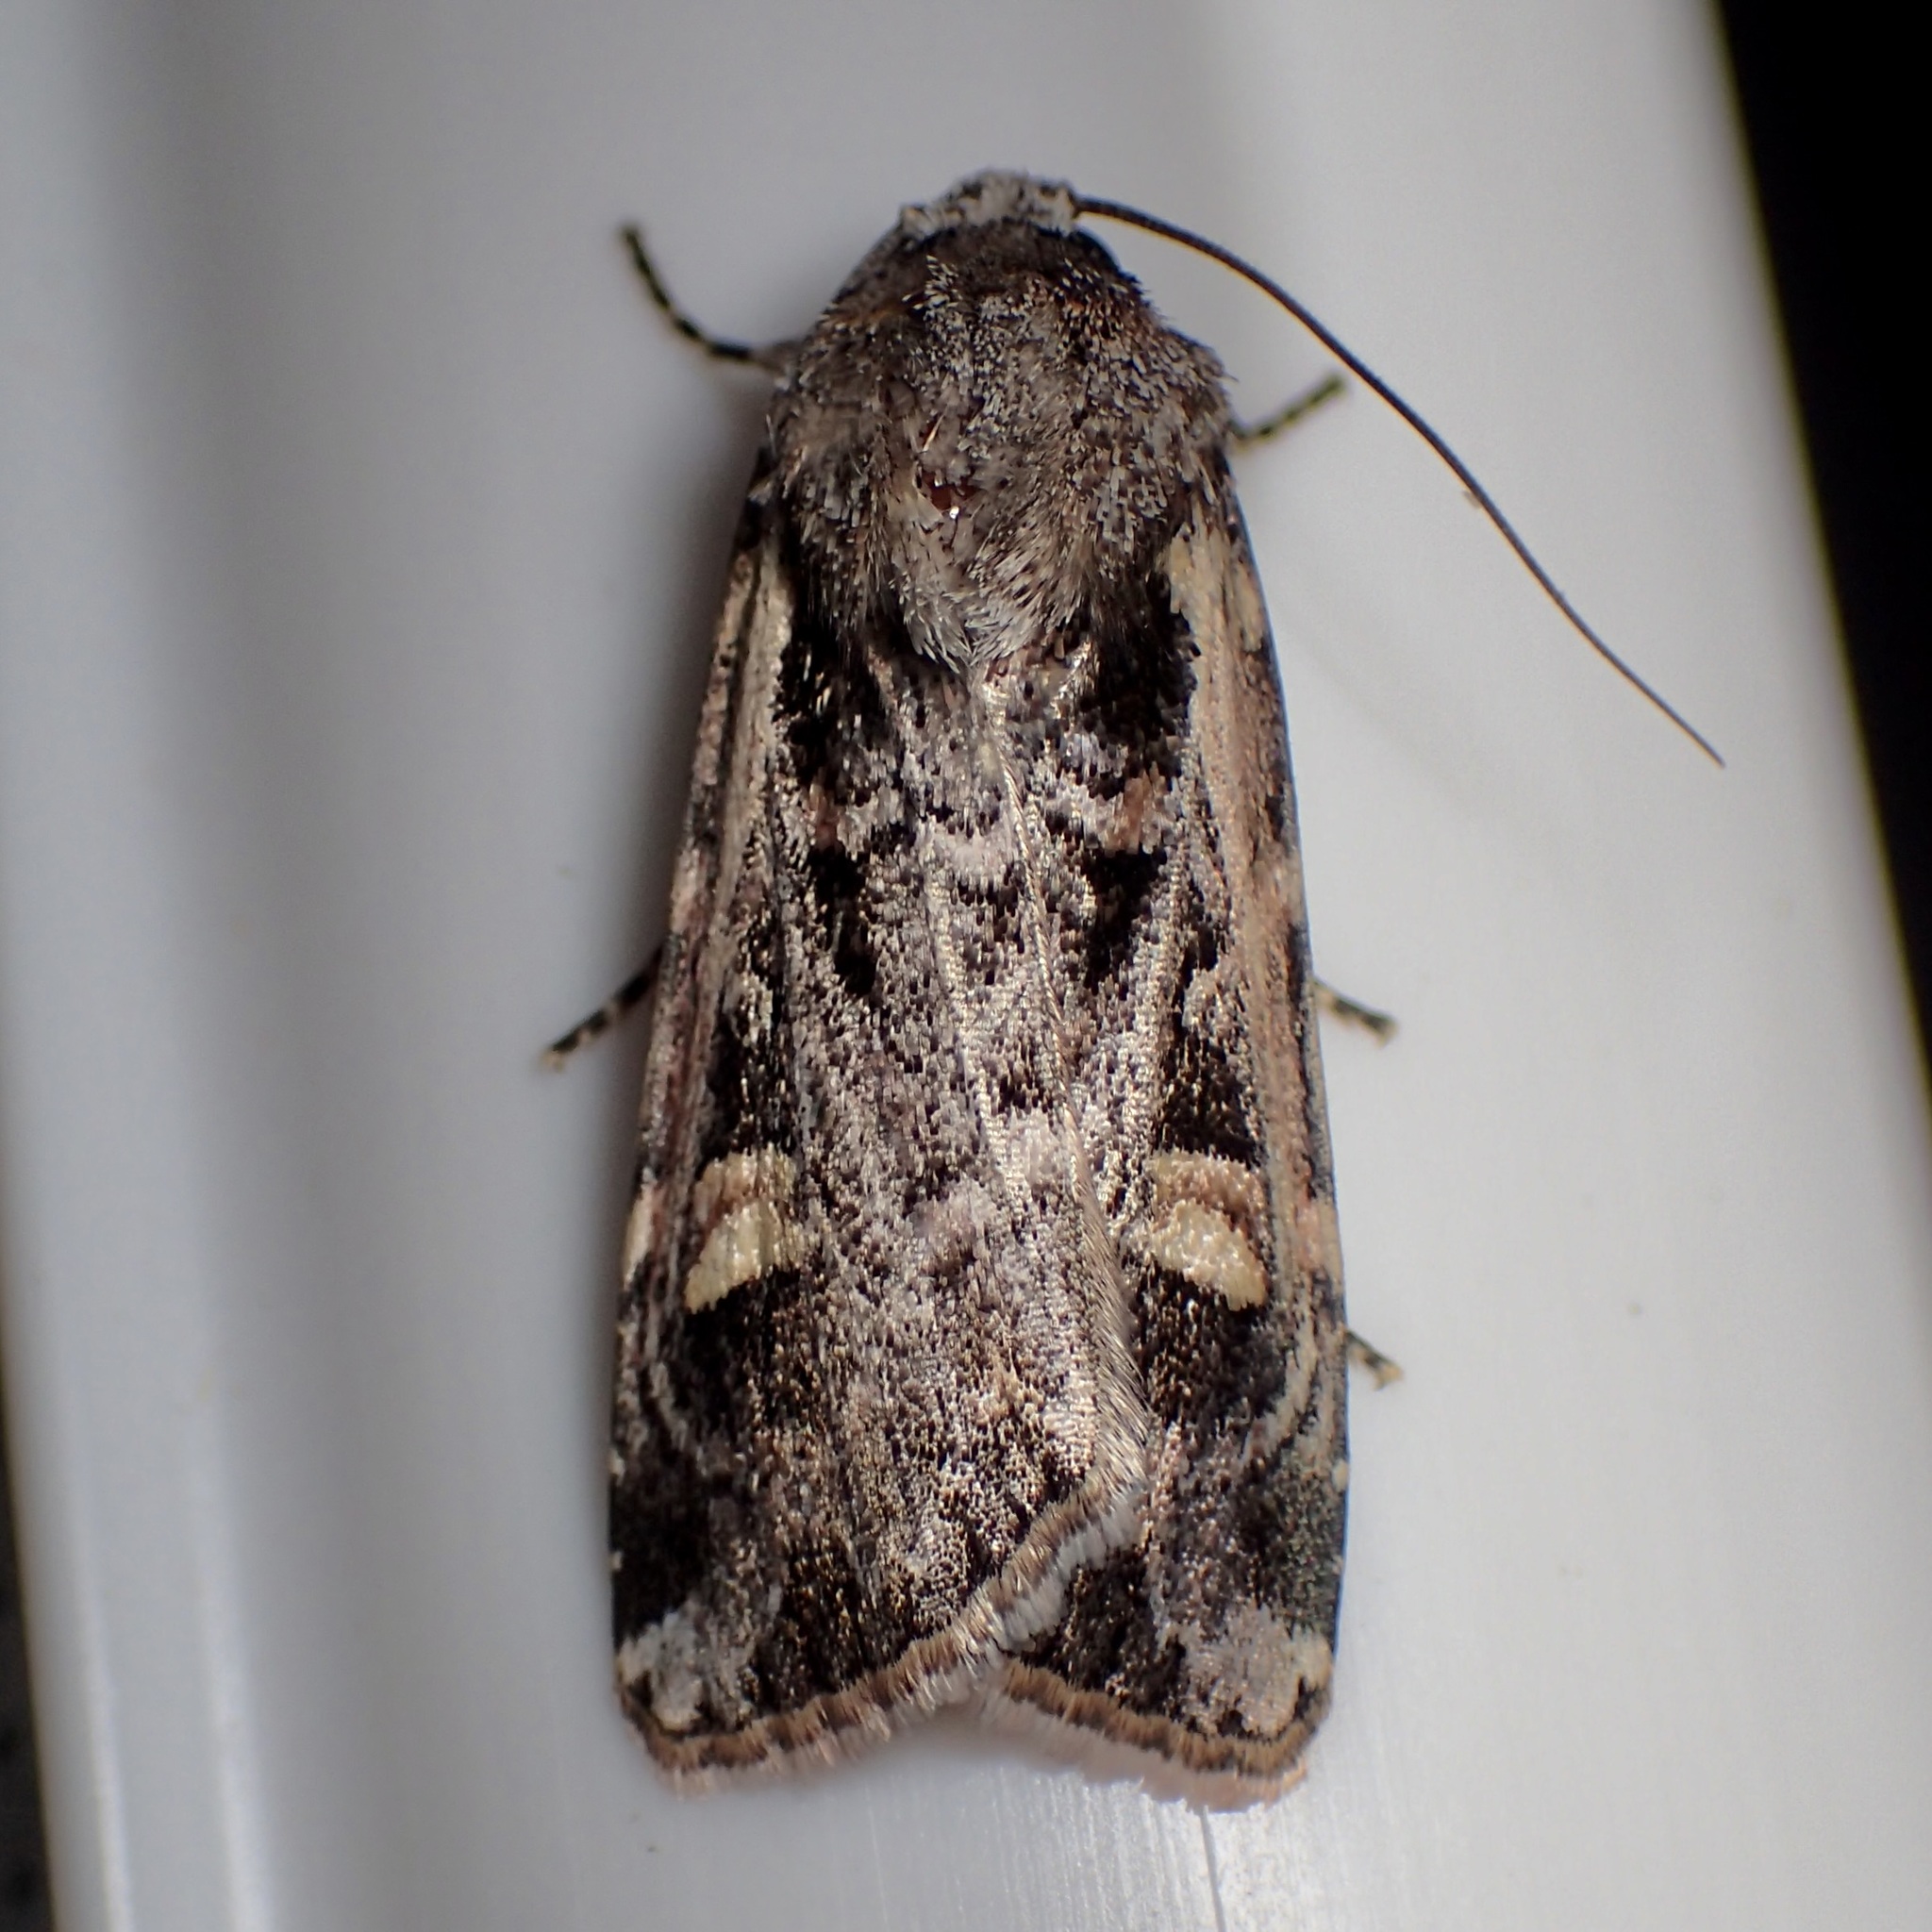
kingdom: Animalia
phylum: Arthropoda
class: Insecta
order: Lepidoptera
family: Noctuidae
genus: Dichagyris
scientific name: Dichagyris socorro
